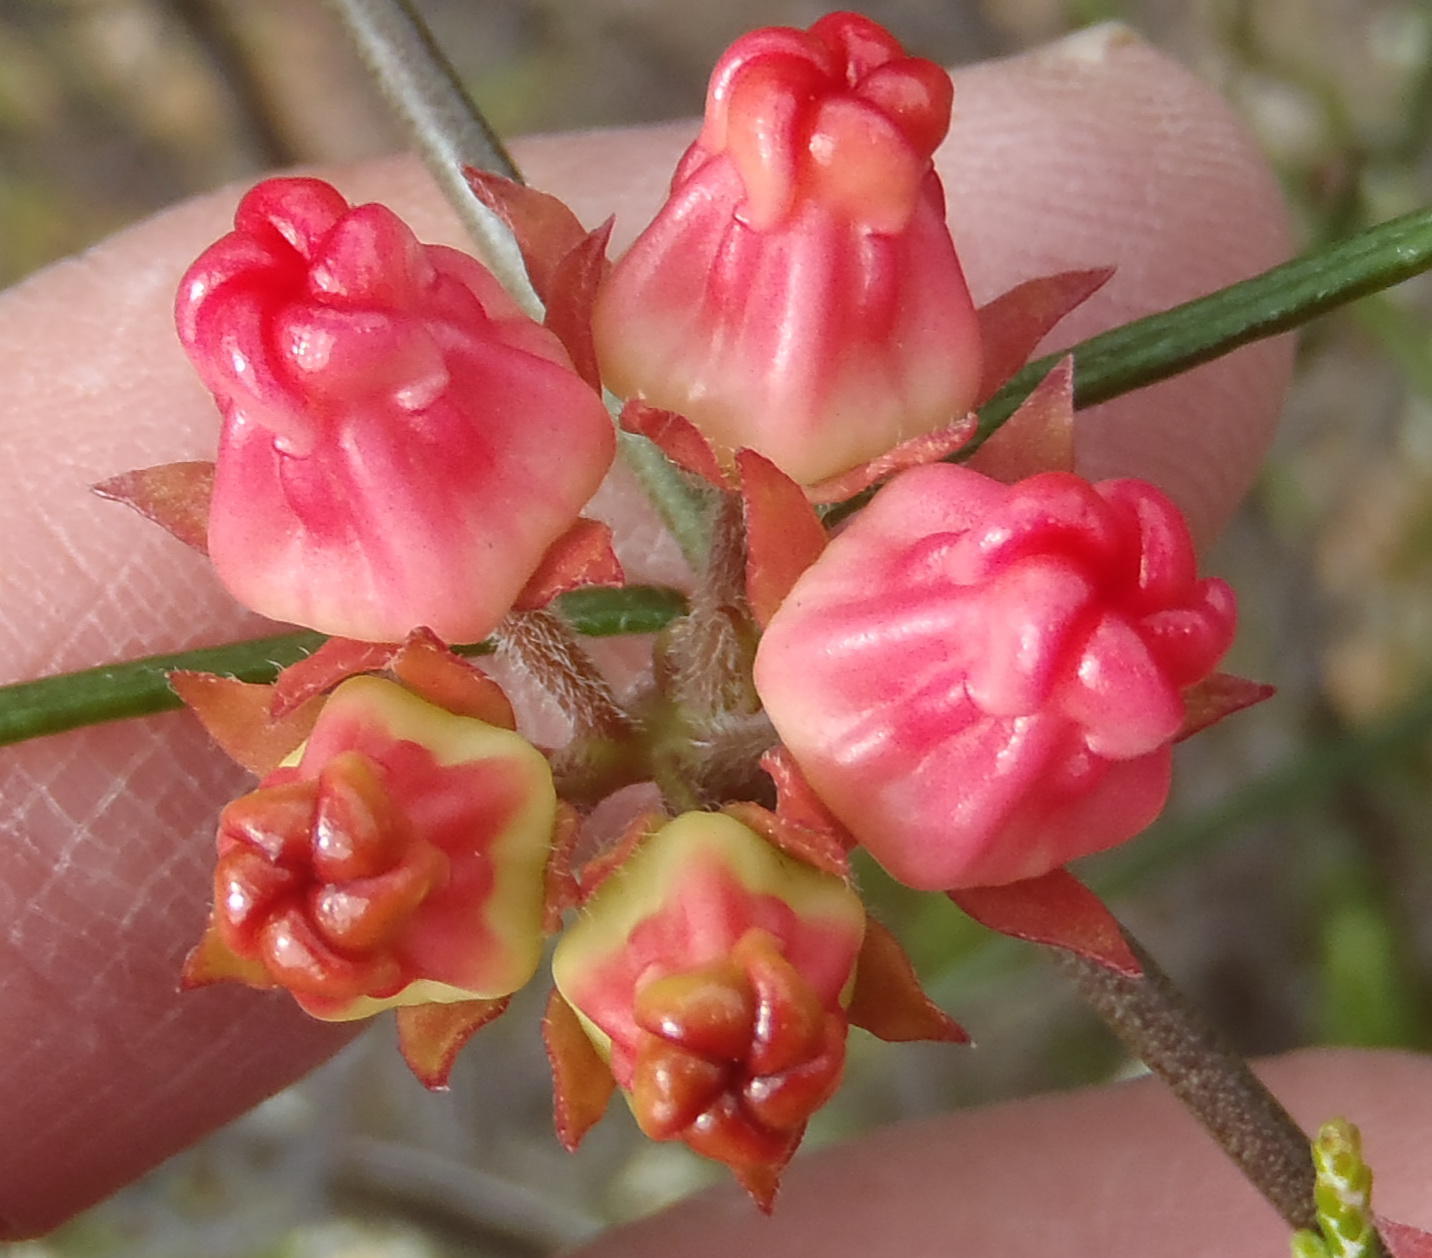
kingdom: Plantae
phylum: Tracheophyta
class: Magnoliopsida
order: Gentianales
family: Apocynaceae
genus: Microloma
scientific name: Microloma tenuifolium
